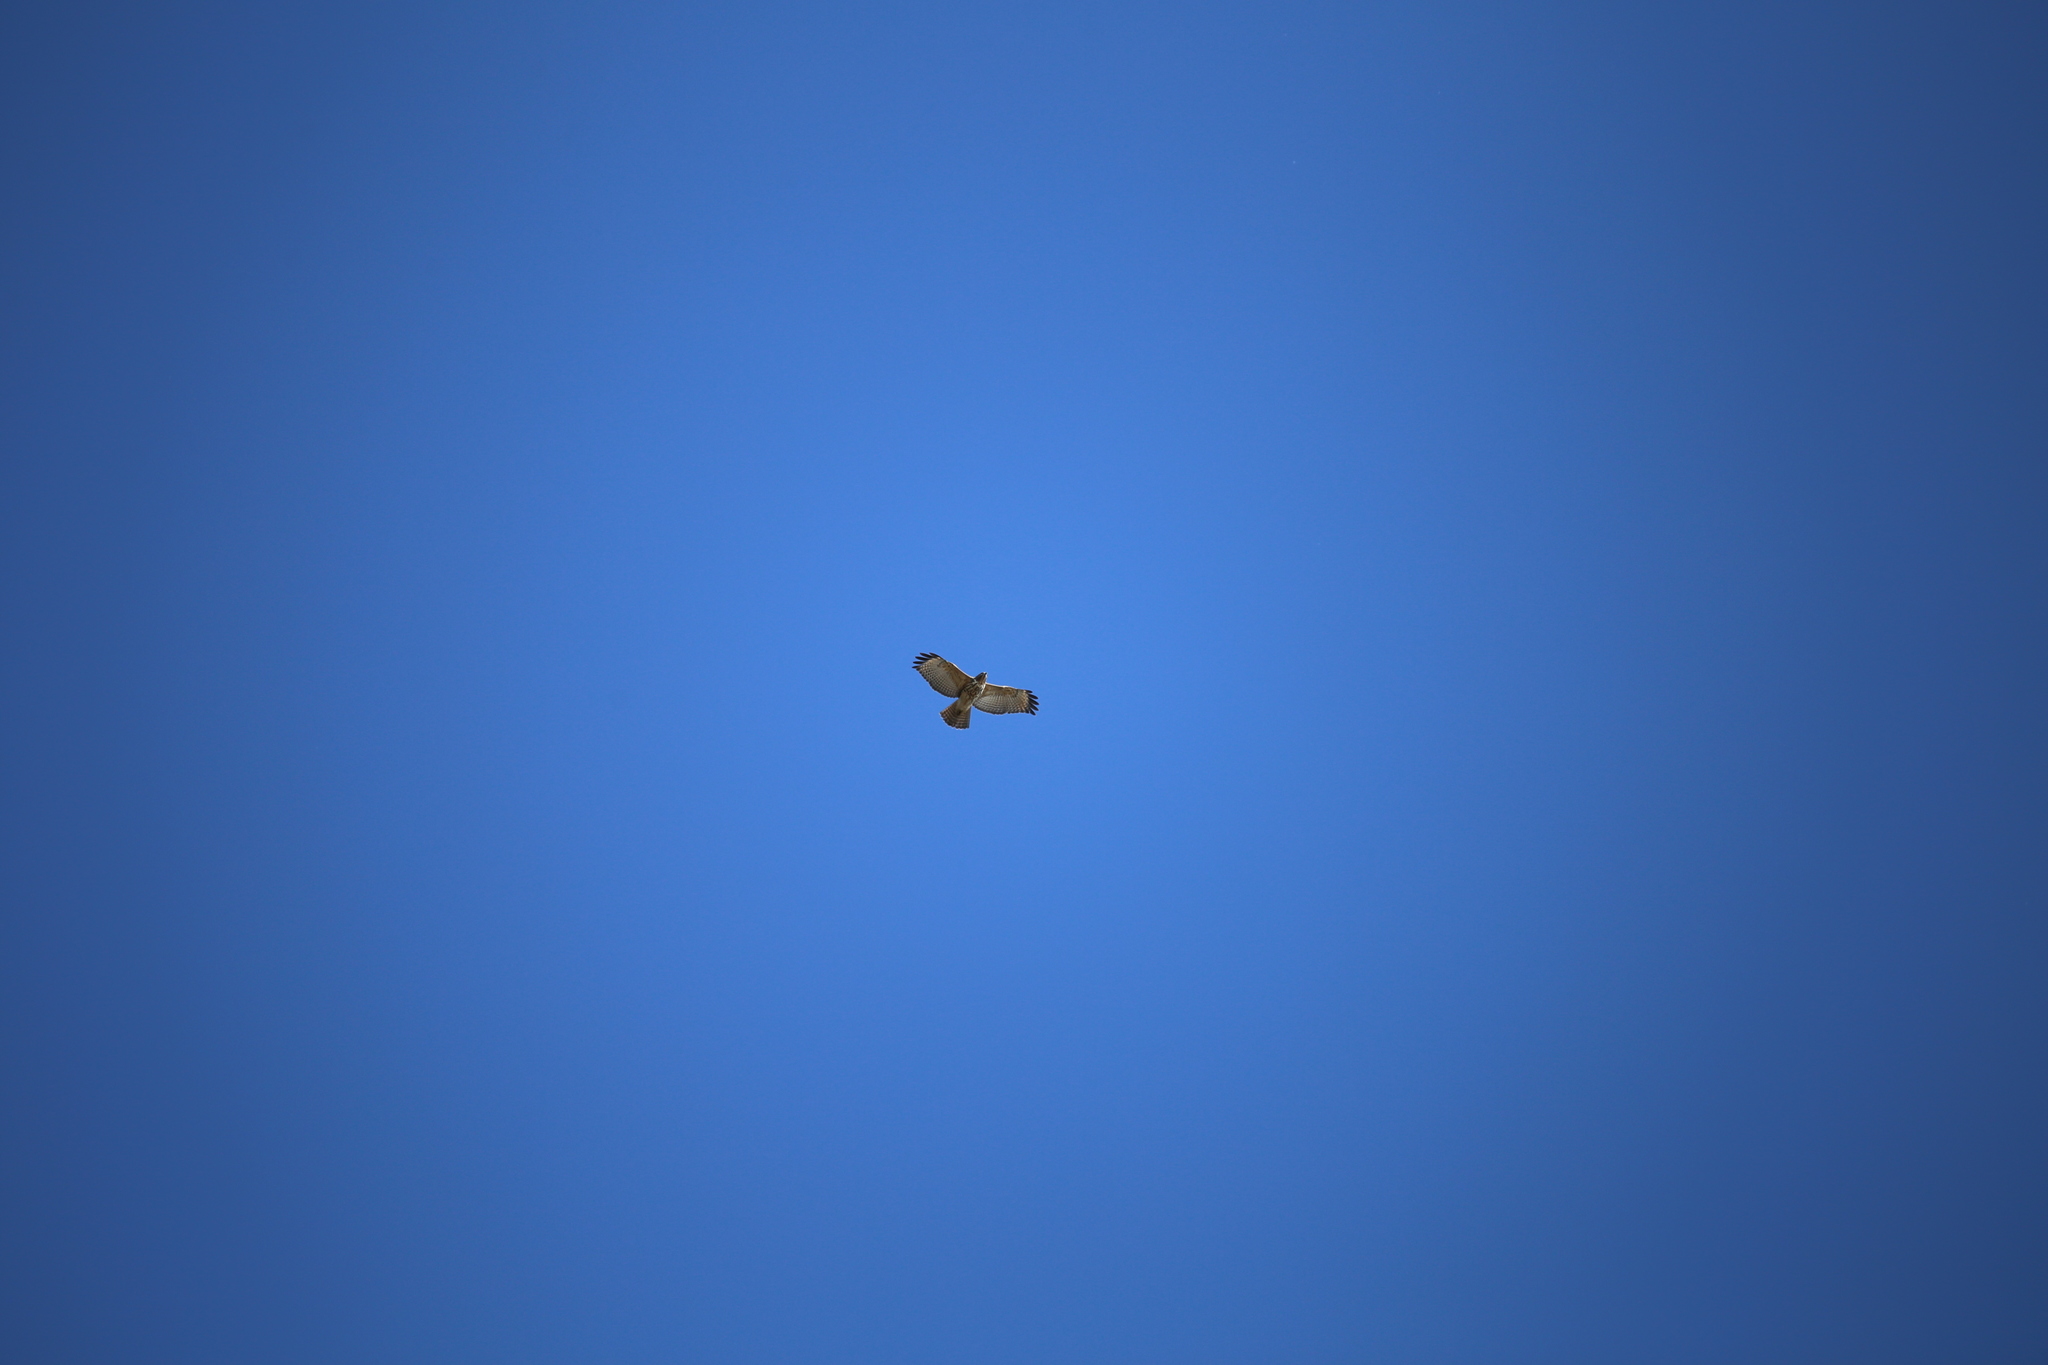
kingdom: Animalia
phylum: Chordata
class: Aves
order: Accipitriformes
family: Accipitridae
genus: Buteo
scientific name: Buteo lineatus
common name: Red-shouldered hawk
